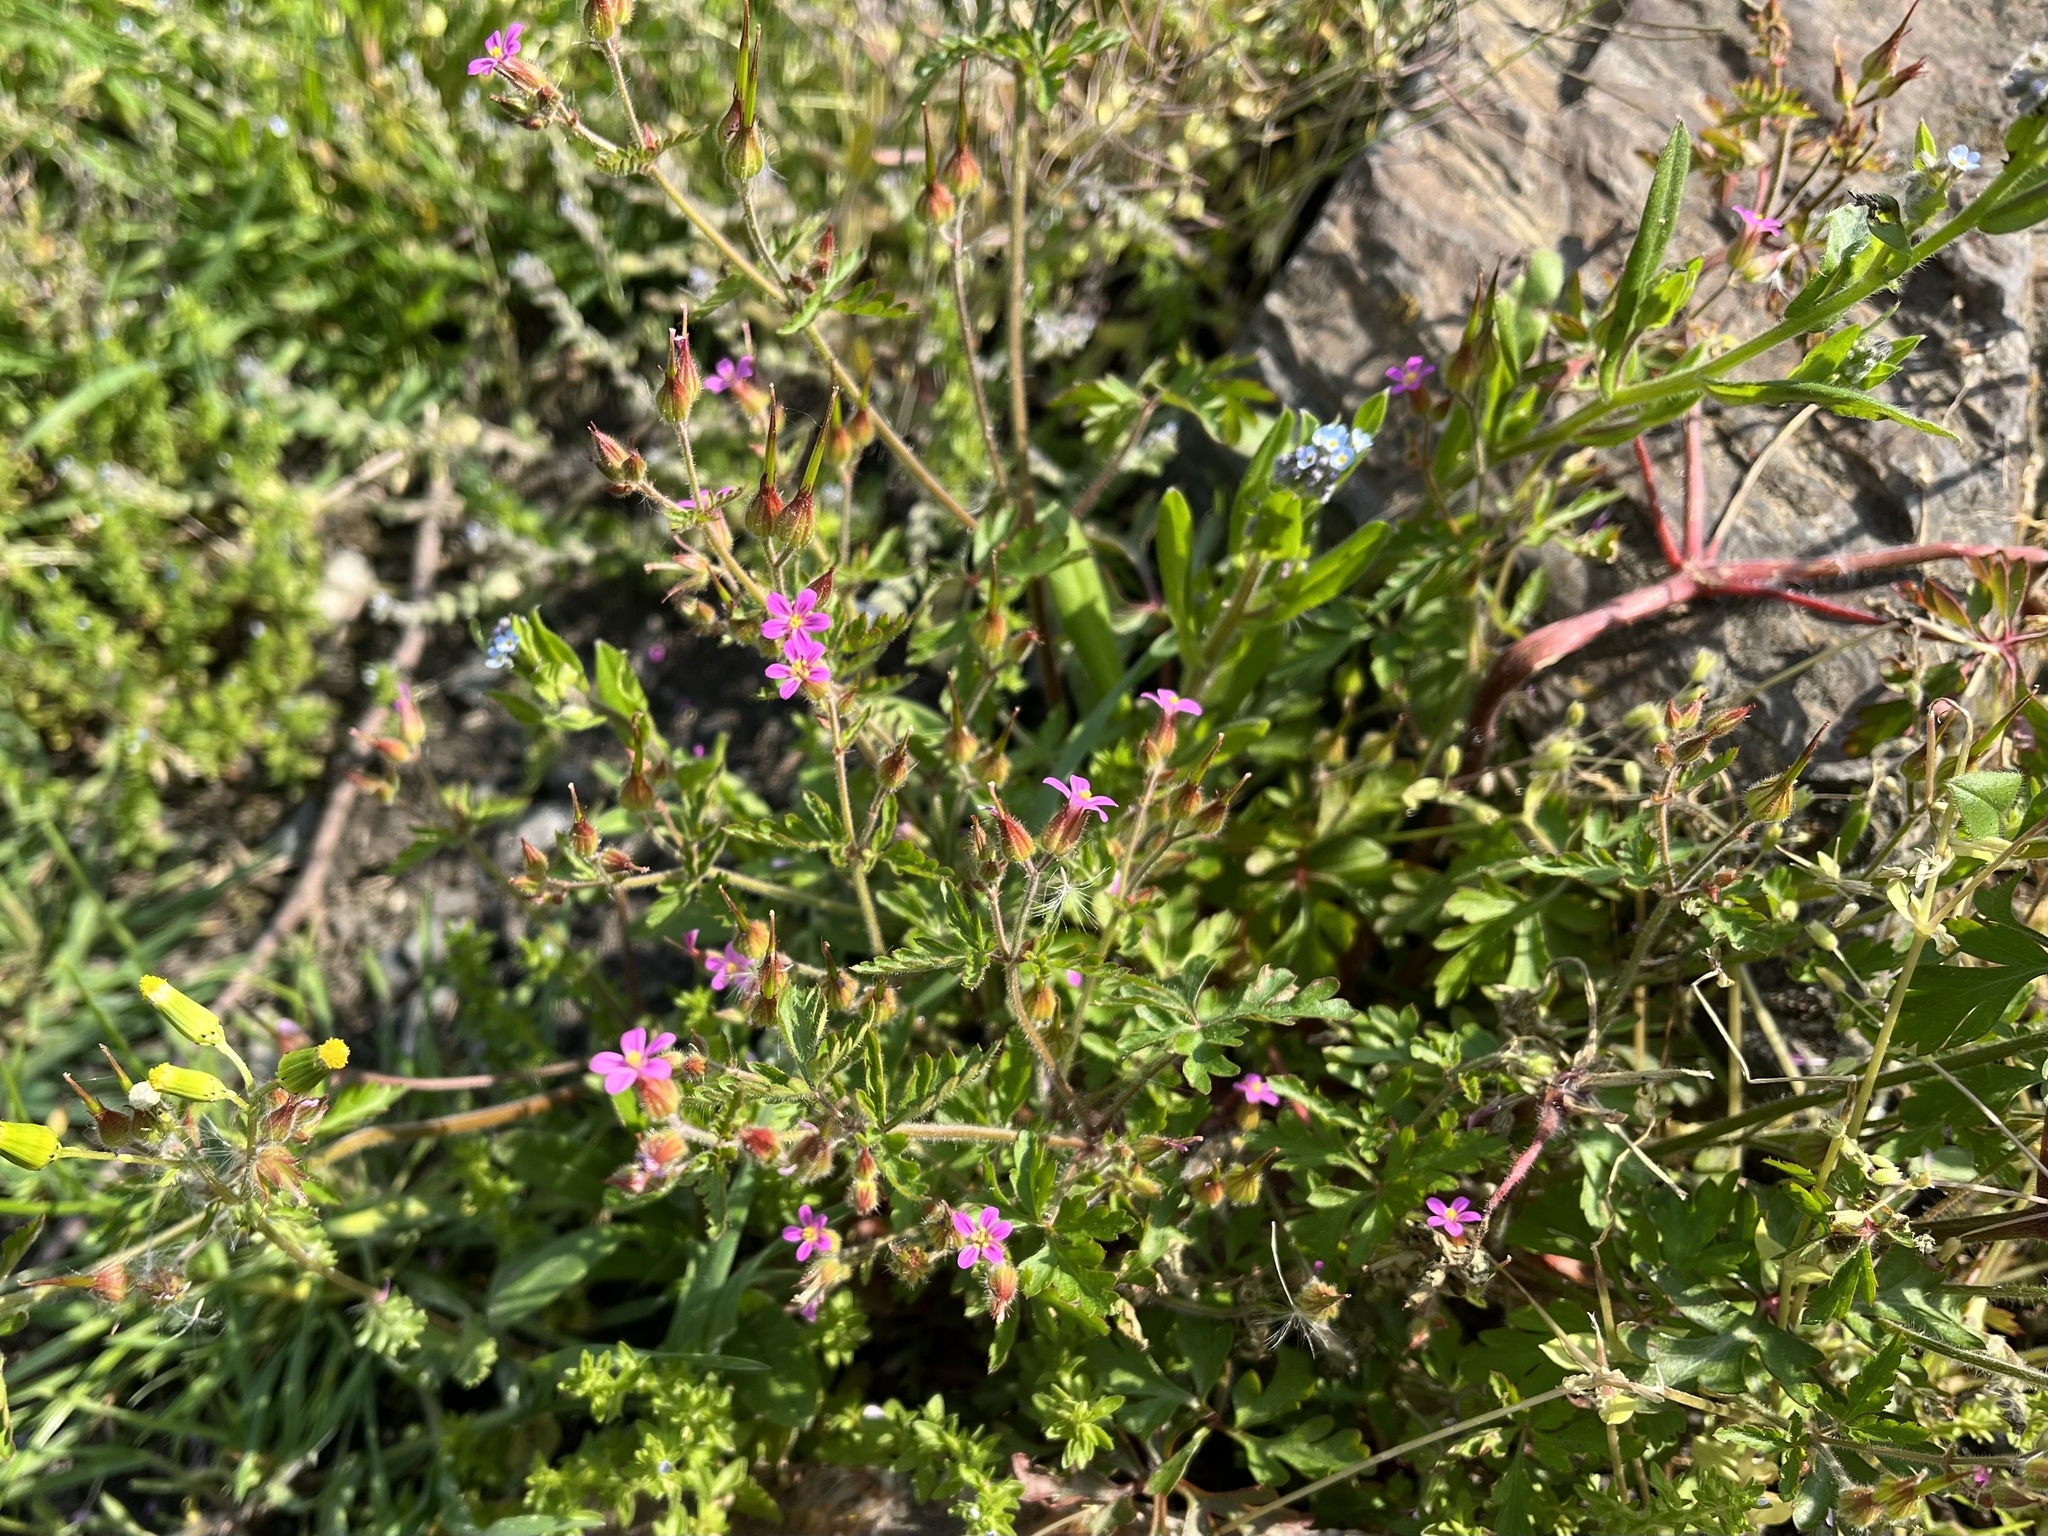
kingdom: Plantae
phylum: Tracheophyta
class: Magnoliopsida
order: Geraniales
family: Geraniaceae
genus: Geranium
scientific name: Geranium purpureum
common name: Little-robin
